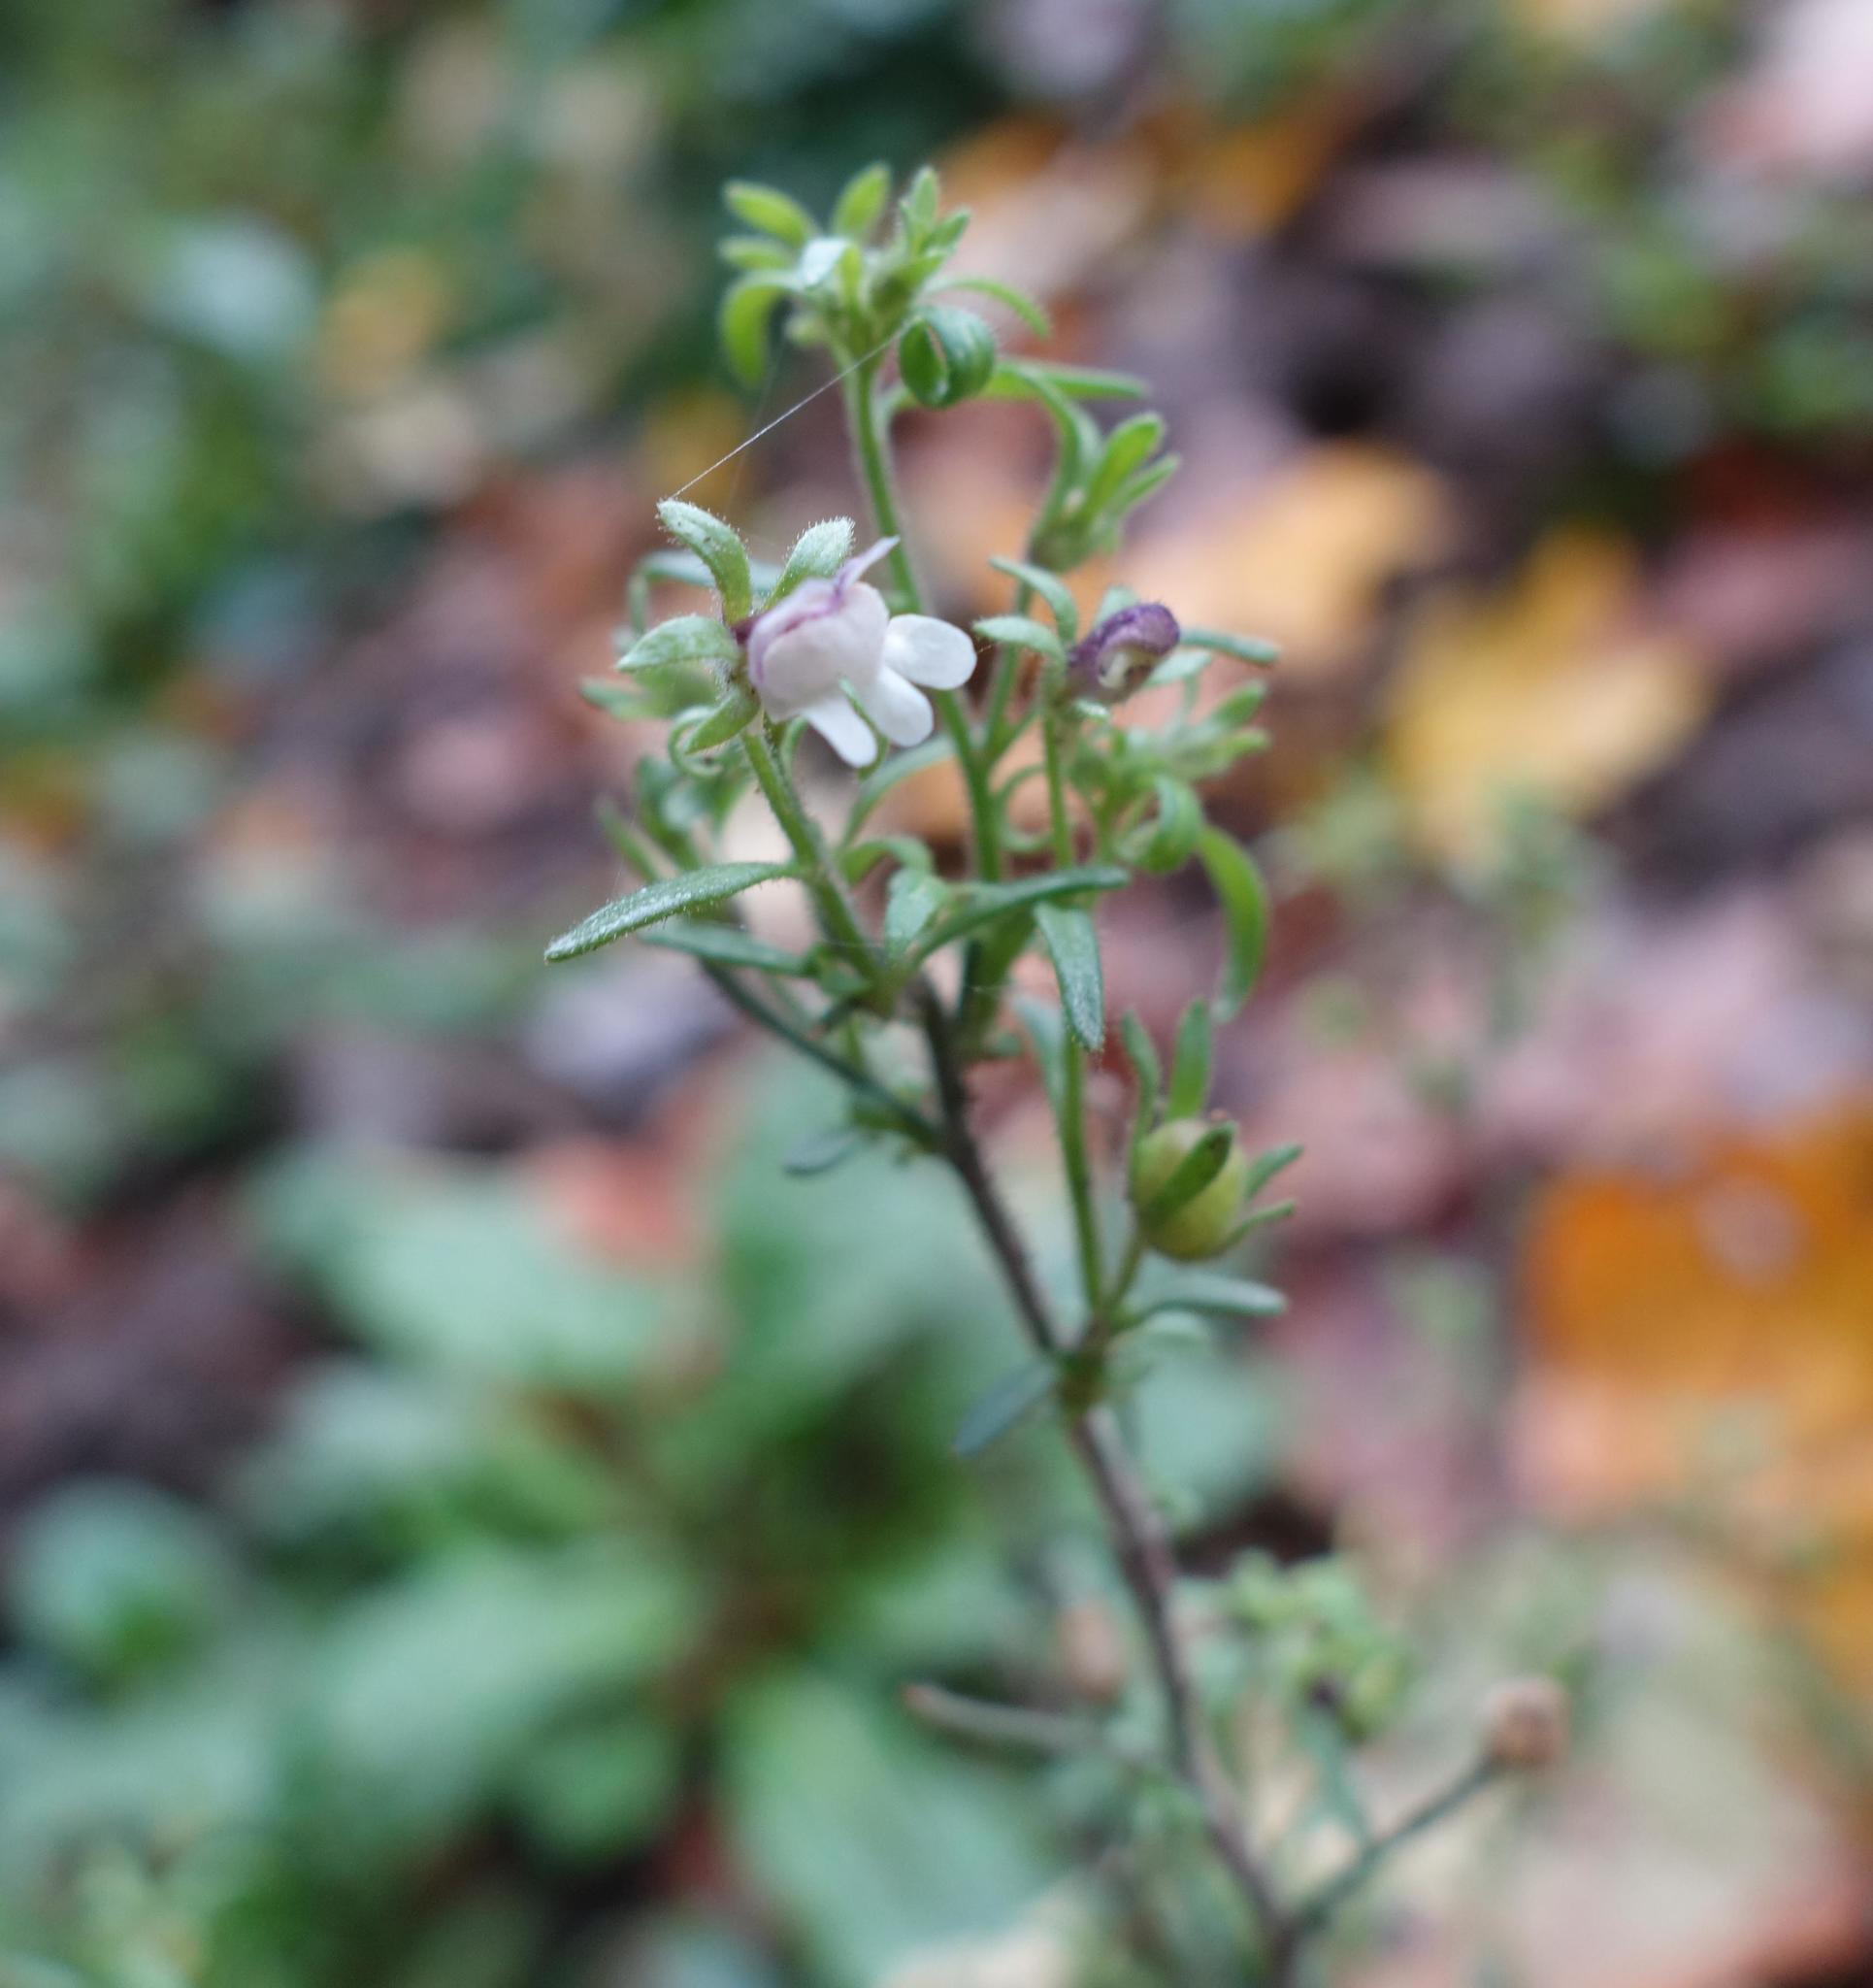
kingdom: Plantae
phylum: Tracheophyta
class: Magnoliopsida
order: Lamiales
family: Plantaginaceae
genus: Chaenorhinum
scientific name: Chaenorhinum minus
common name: Dwarf snapdragon
